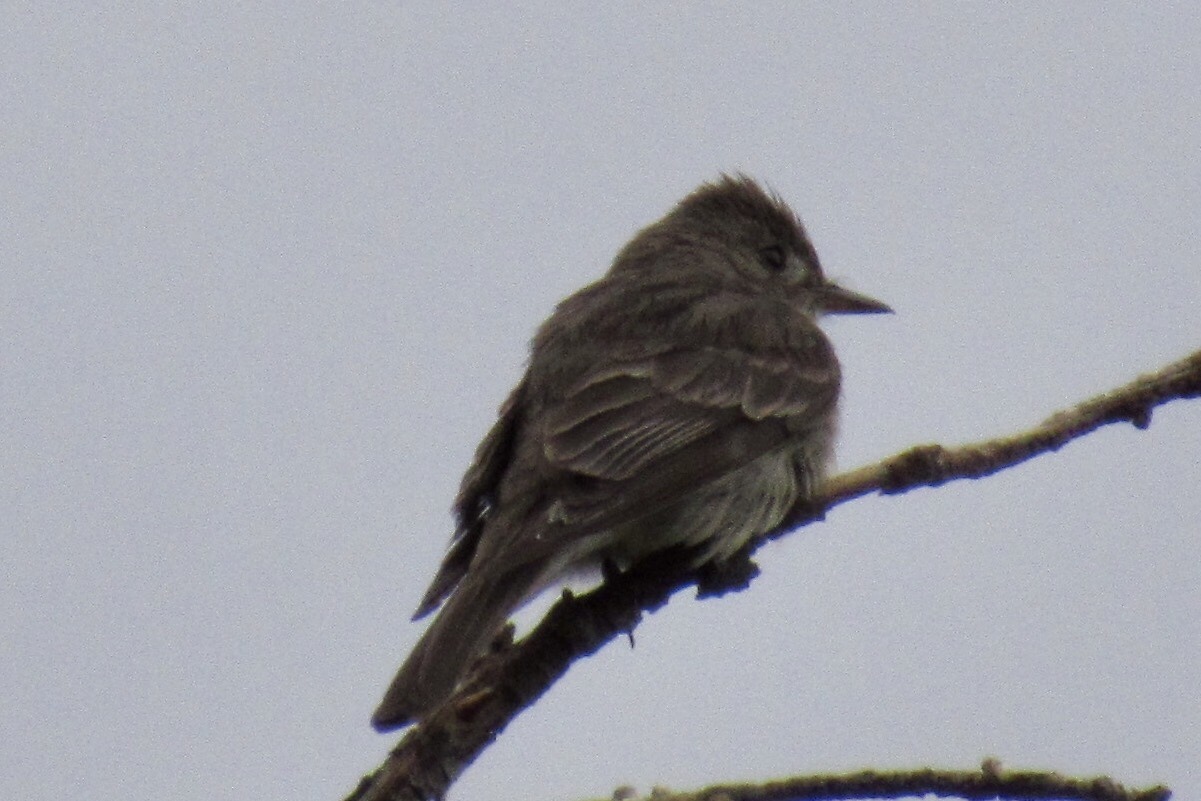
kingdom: Animalia
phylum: Chordata
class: Aves
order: Passeriformes
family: Tyrannidae
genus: Contopus
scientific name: Contopus sordidulus
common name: Western wood-pewee
